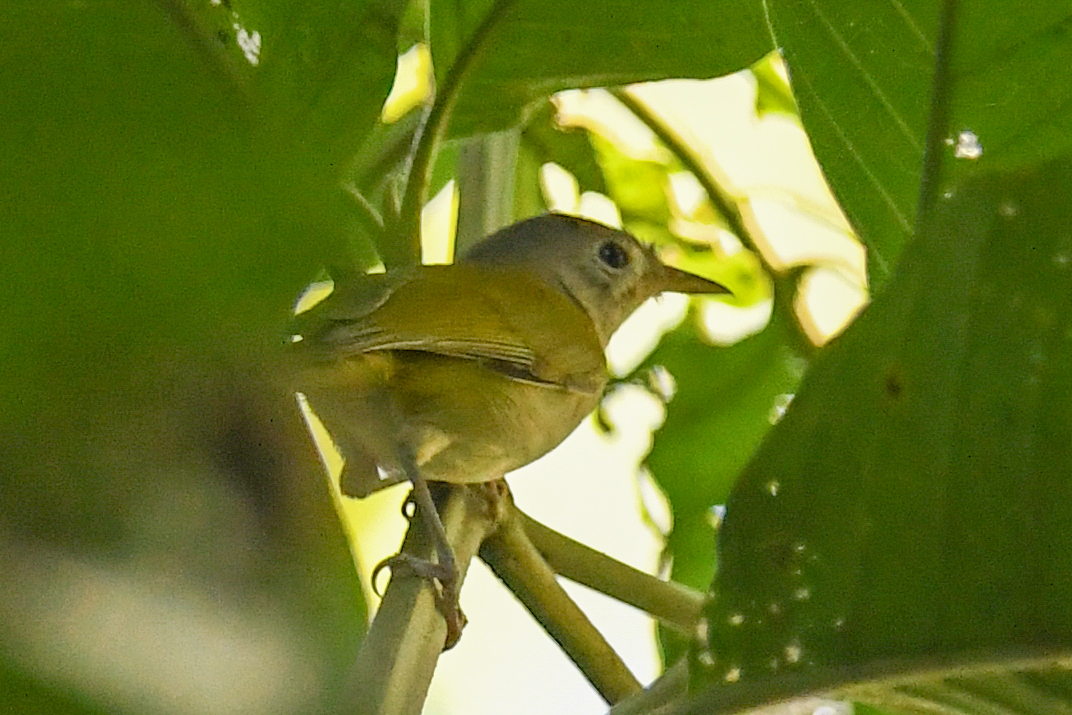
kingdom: Animalia
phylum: Chordata
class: Aves
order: Passeriformes
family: Vireonidae
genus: Hylophilus
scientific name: Hylophilus decurtatus
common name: Lesser greenlet
